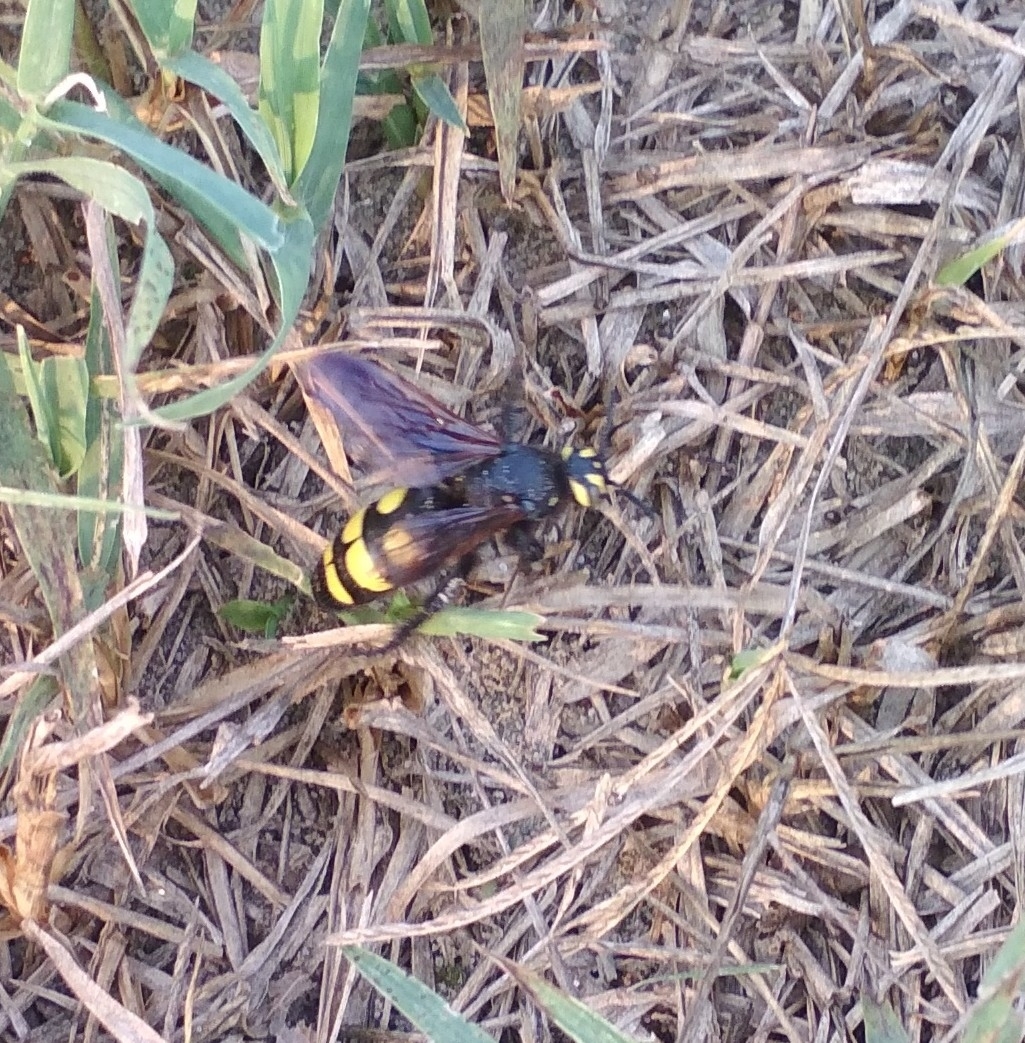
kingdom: Animalia
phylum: Arthropoda
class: Insecta
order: Hymenoptera
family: Vespidae
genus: Vespa
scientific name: Vespa sexmaculata
